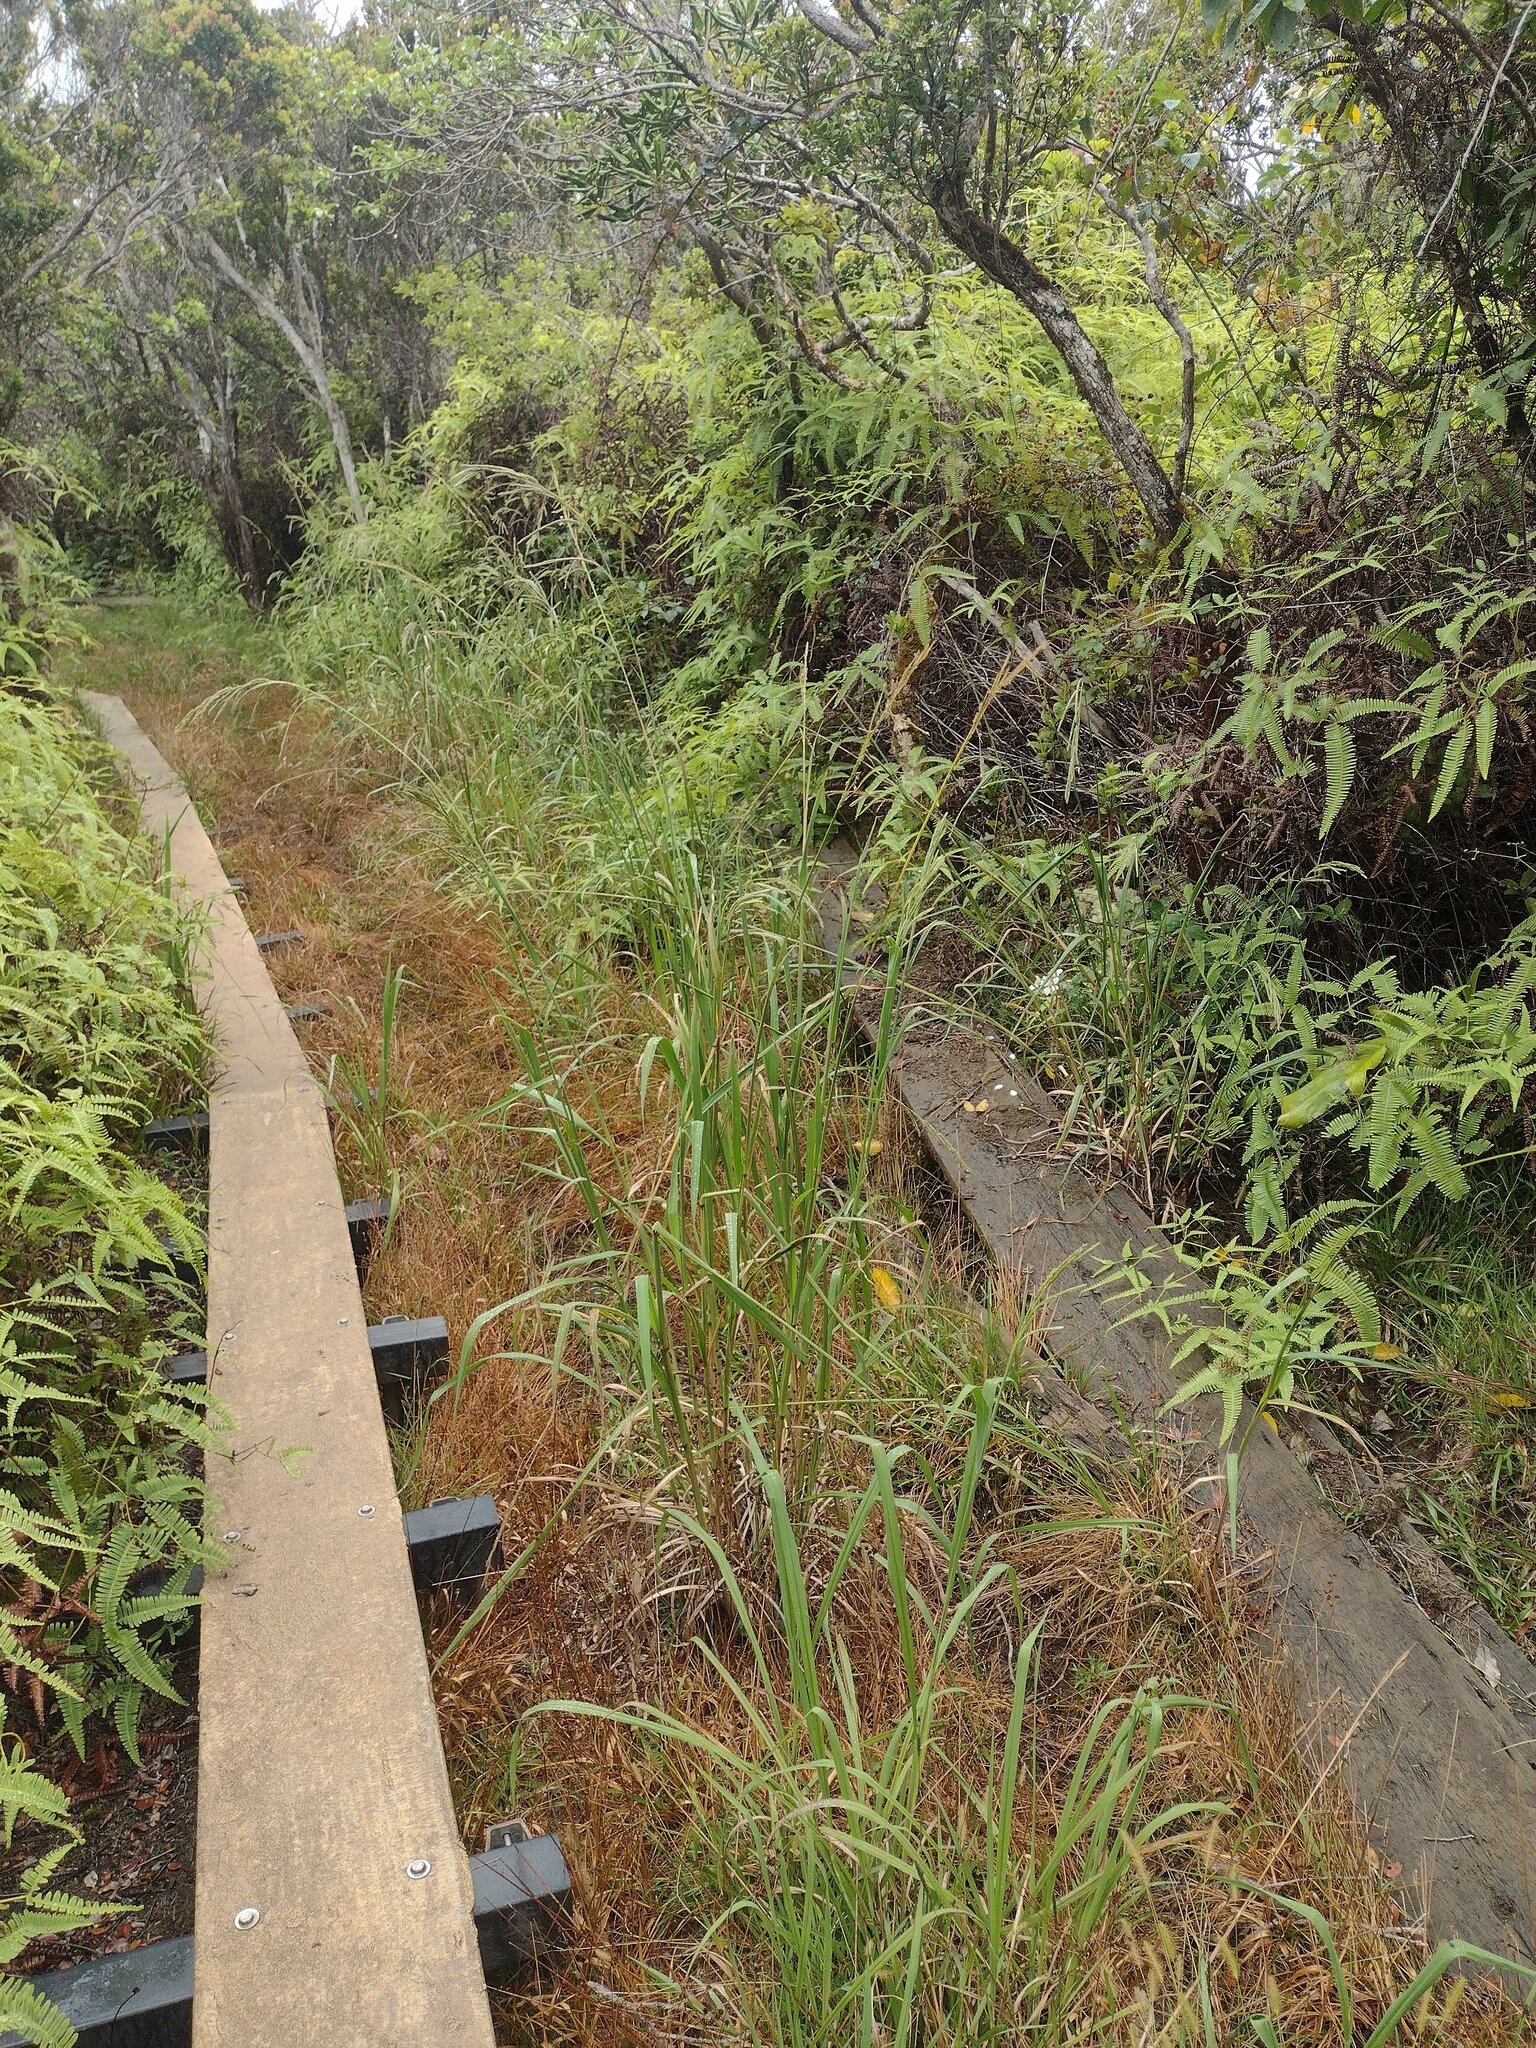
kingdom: Plantae
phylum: Tracheophyta
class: Liliopsida
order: Poales
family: Poaceae
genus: Paspalum
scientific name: Paspalum urvillei
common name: Vasey's grass
